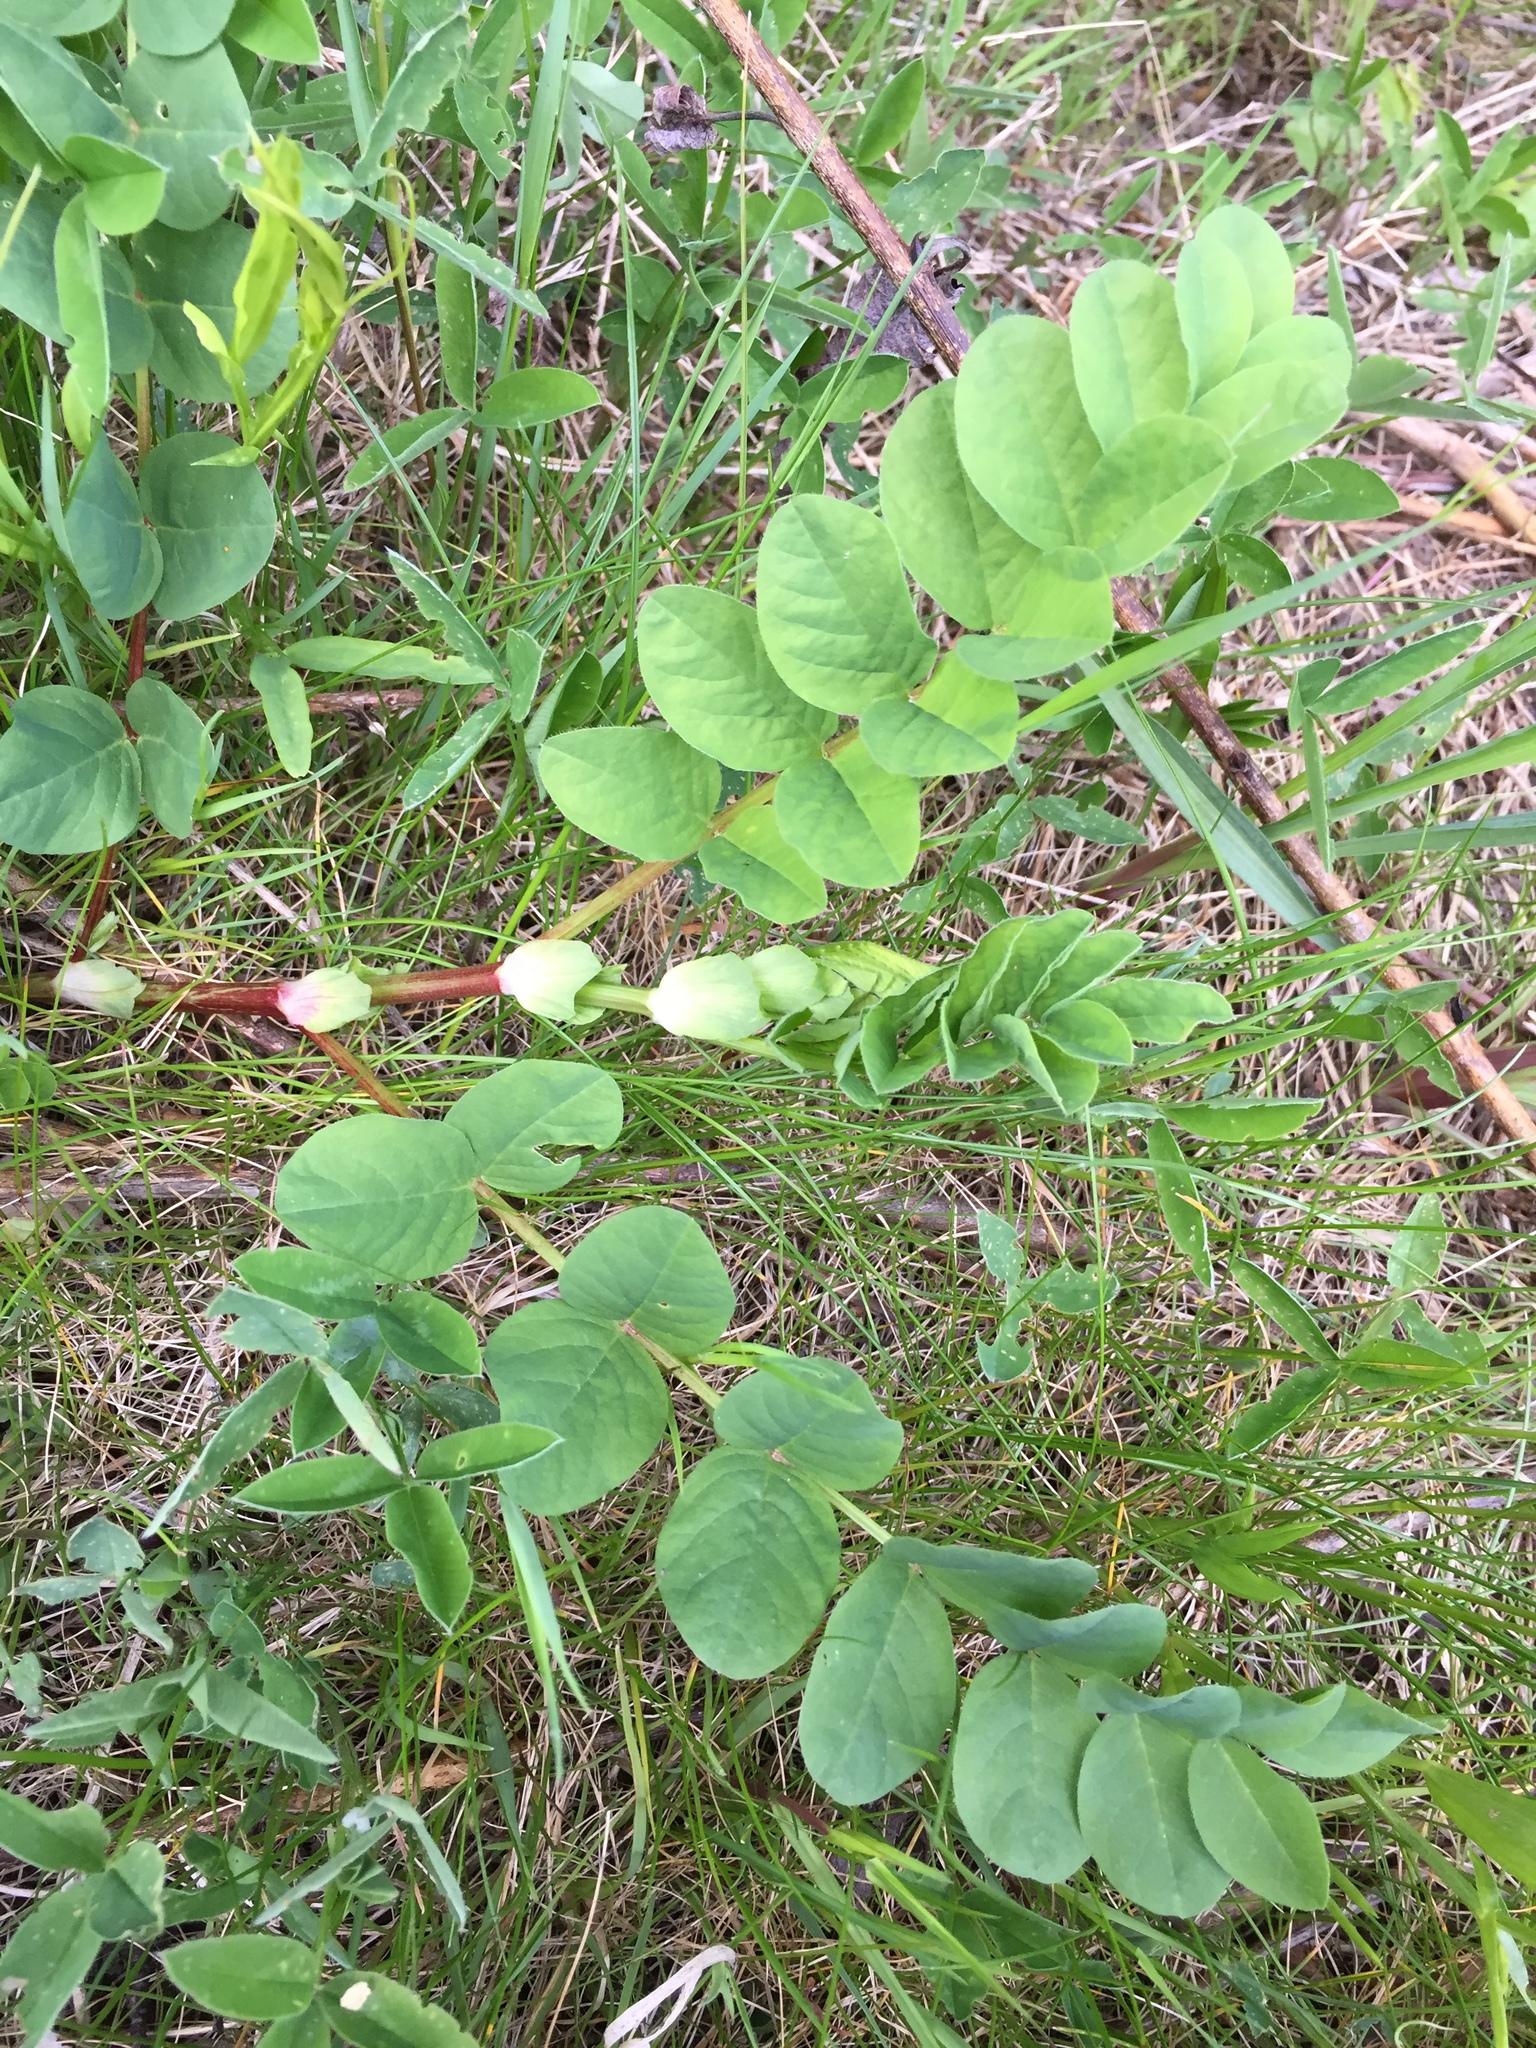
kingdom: Plantae
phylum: Tracheophyta
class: Magnoliopsida
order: Fabales
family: Fabaceae
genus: Astragalus
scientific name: Astragalus glycyphyllos
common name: Wild liquorice
